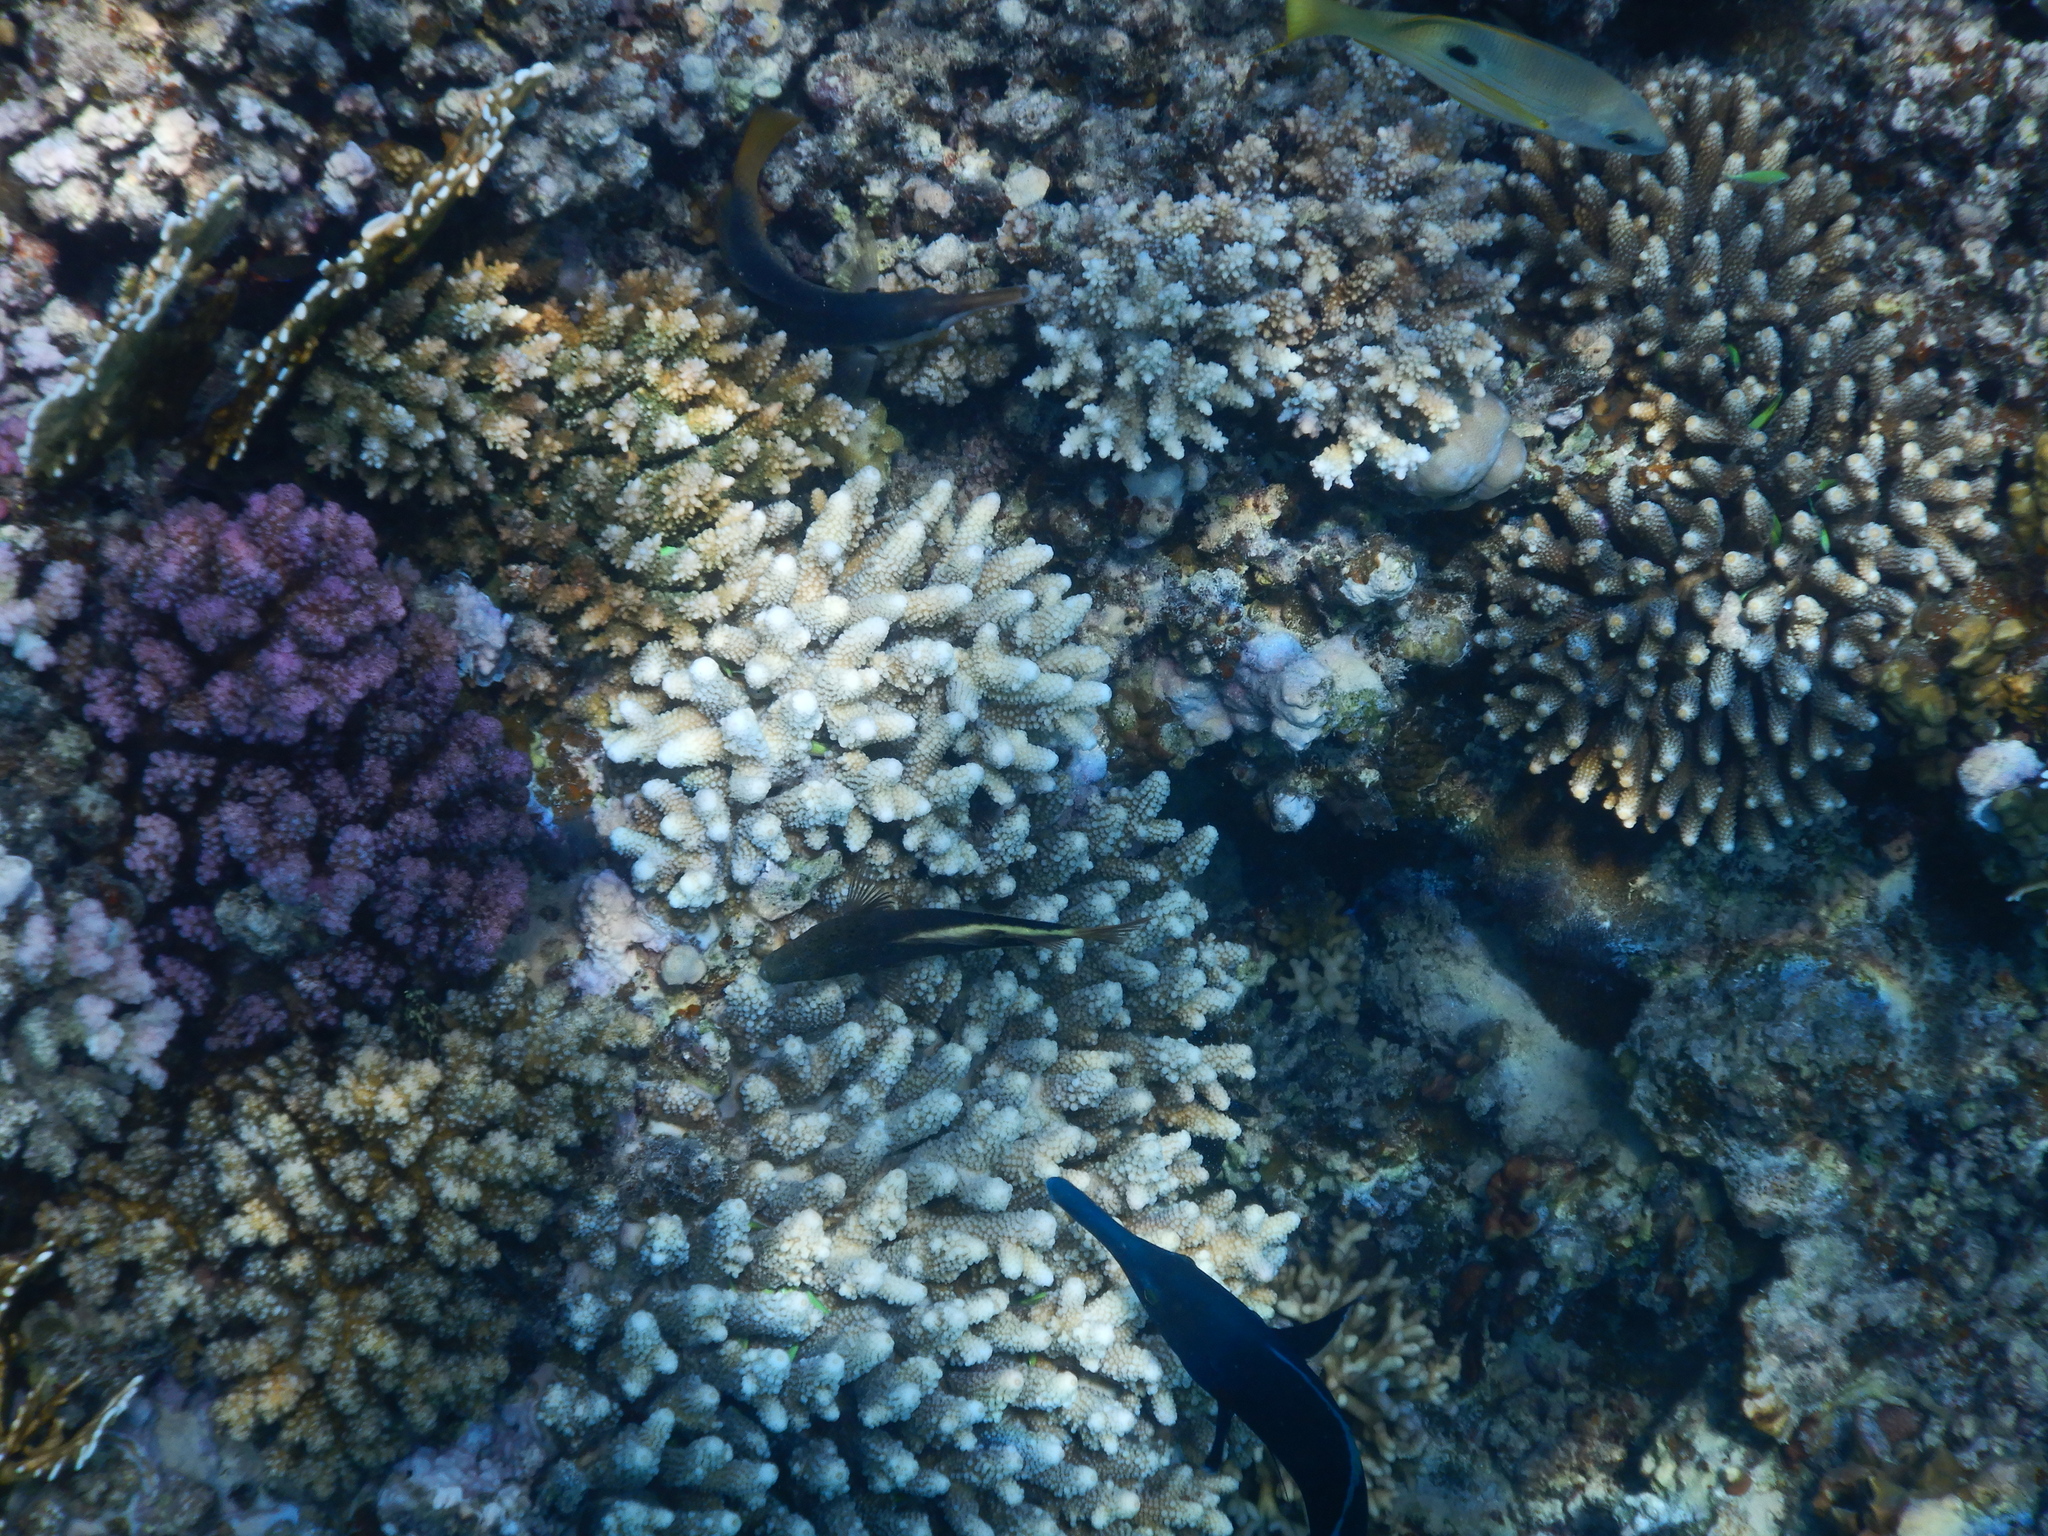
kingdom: Animalia
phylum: Chordata
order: Perciformes
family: Cirrhitidae
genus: Paracirrhites
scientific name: Paracirrhites forsteri
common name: Freckled hawkfish
